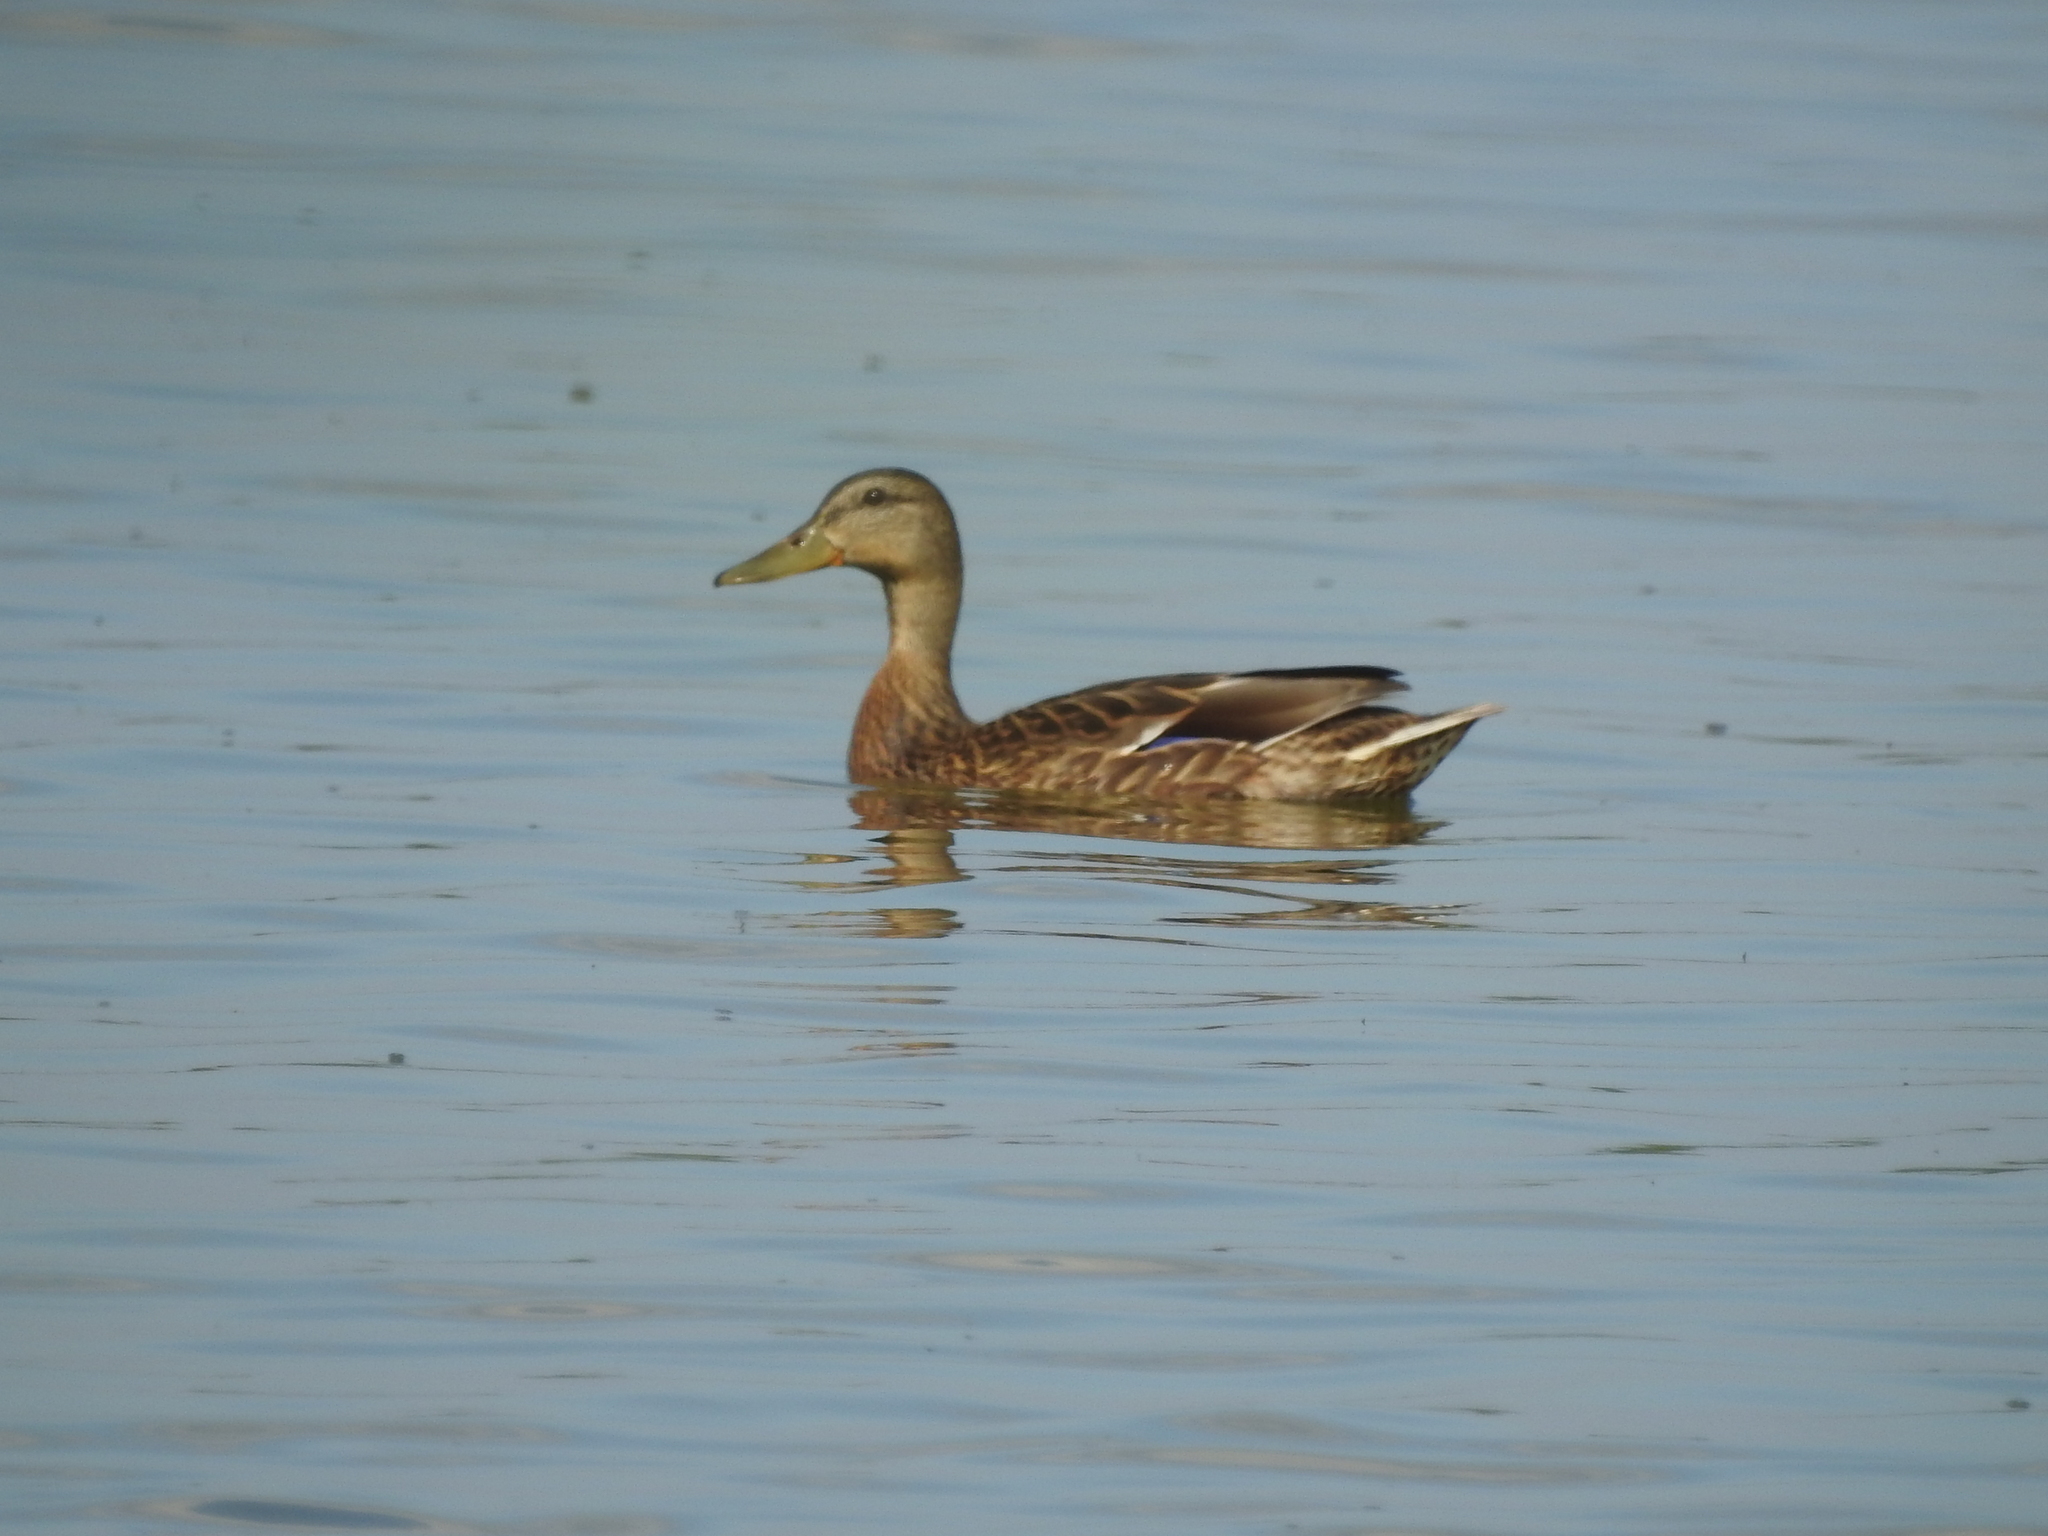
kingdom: Animalia
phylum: Chordata
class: Aves
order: Anseriformes
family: Anatidae
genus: Anas
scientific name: Anas platyrhynchos
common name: Mallard
